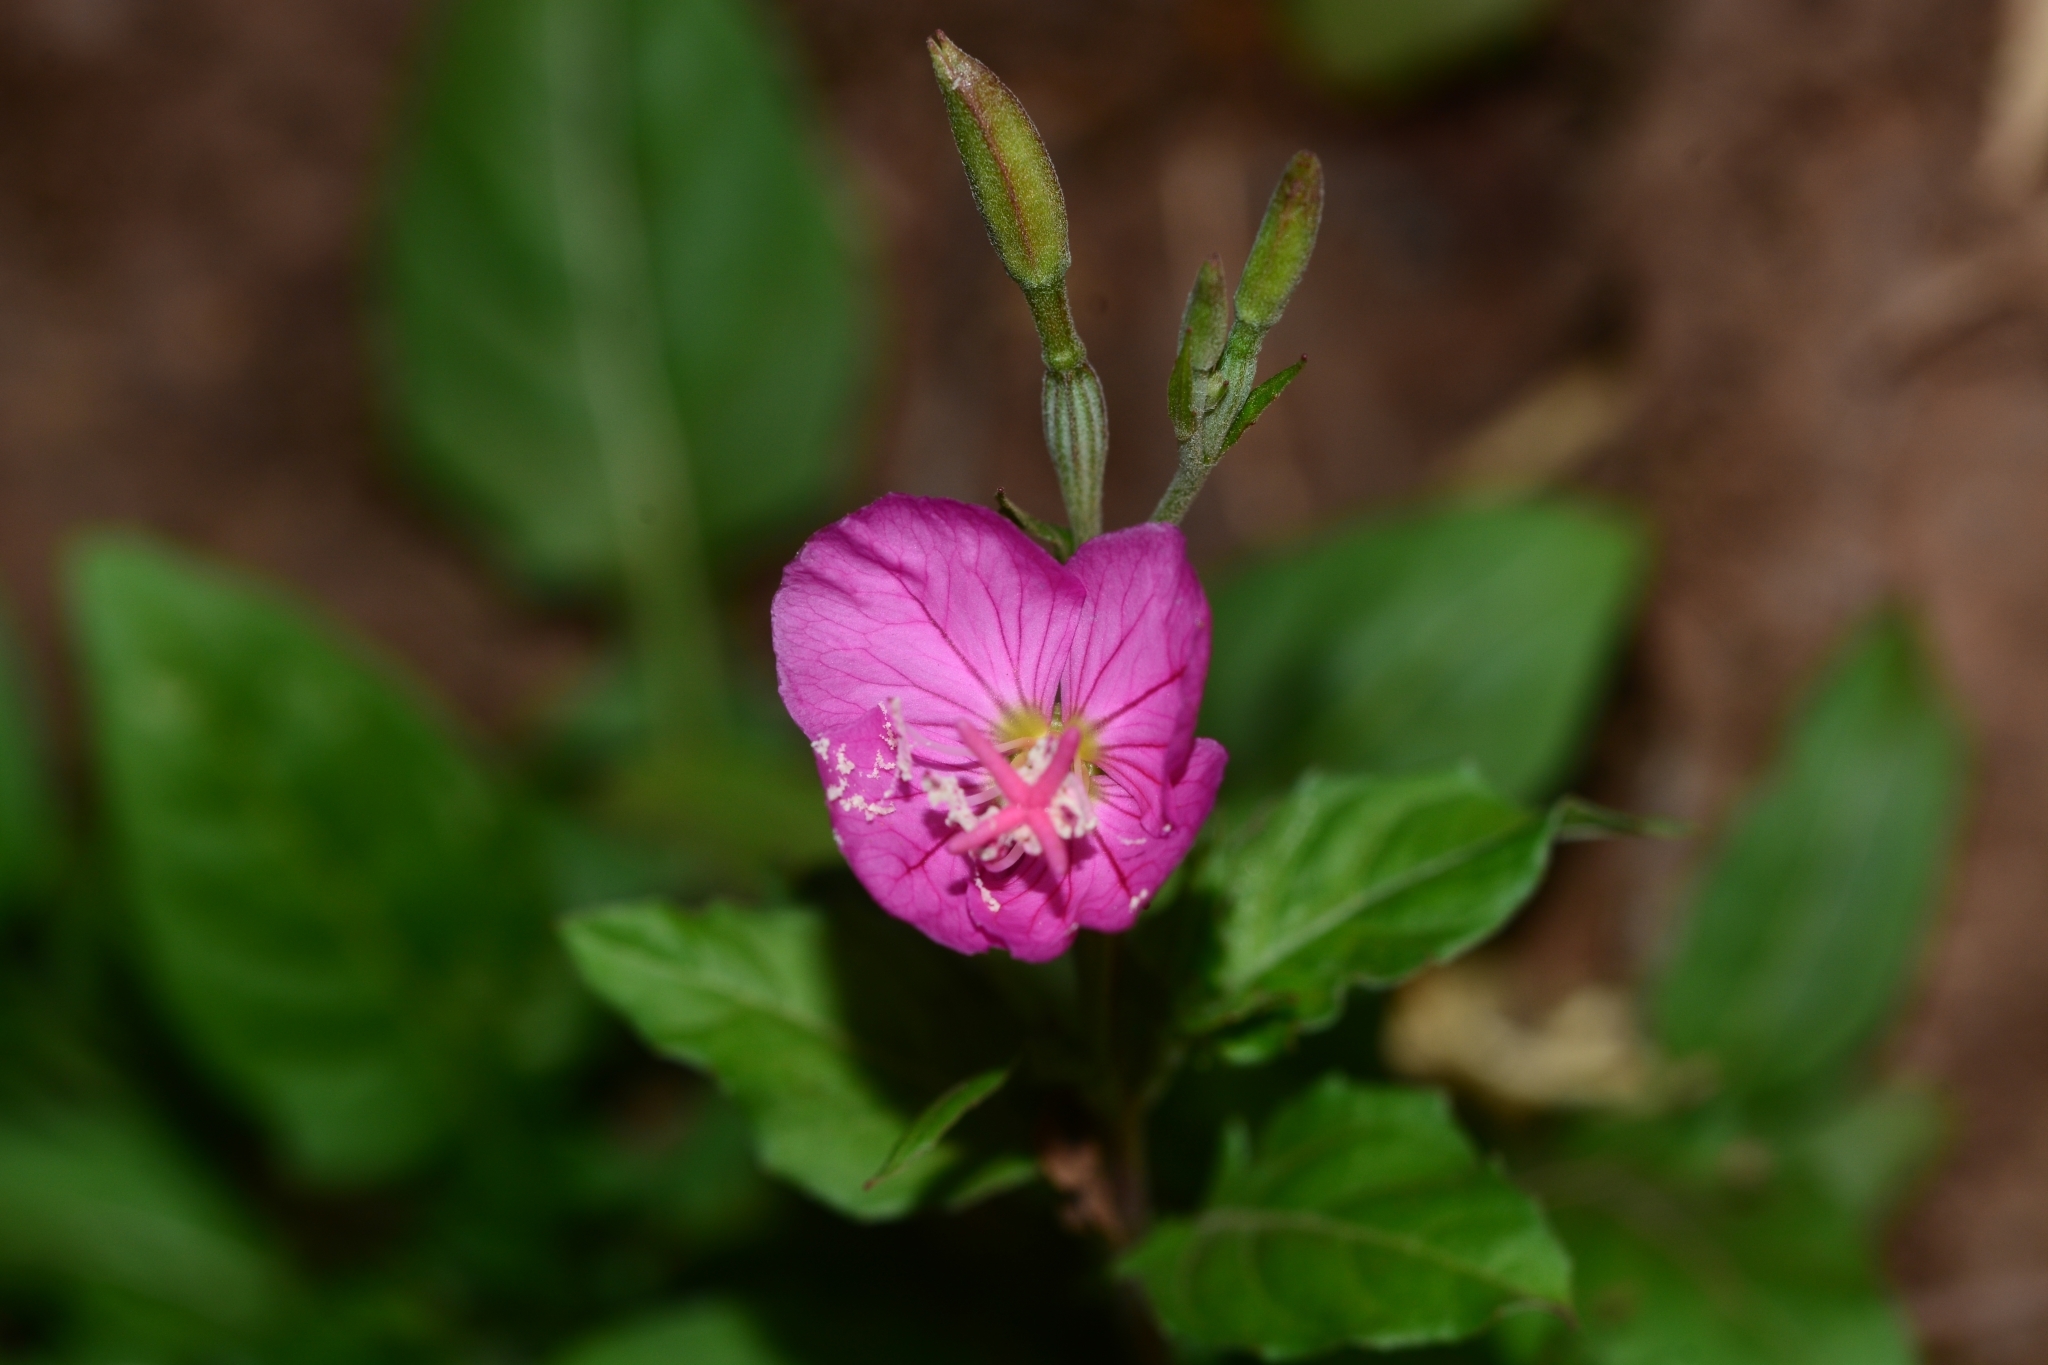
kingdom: Plantae
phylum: Tracheophyta
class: Magnoliopsida
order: Myrtales
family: Onagraceae
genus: Oenothera
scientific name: Oenothera rosea
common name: Rosy evening-primrose
